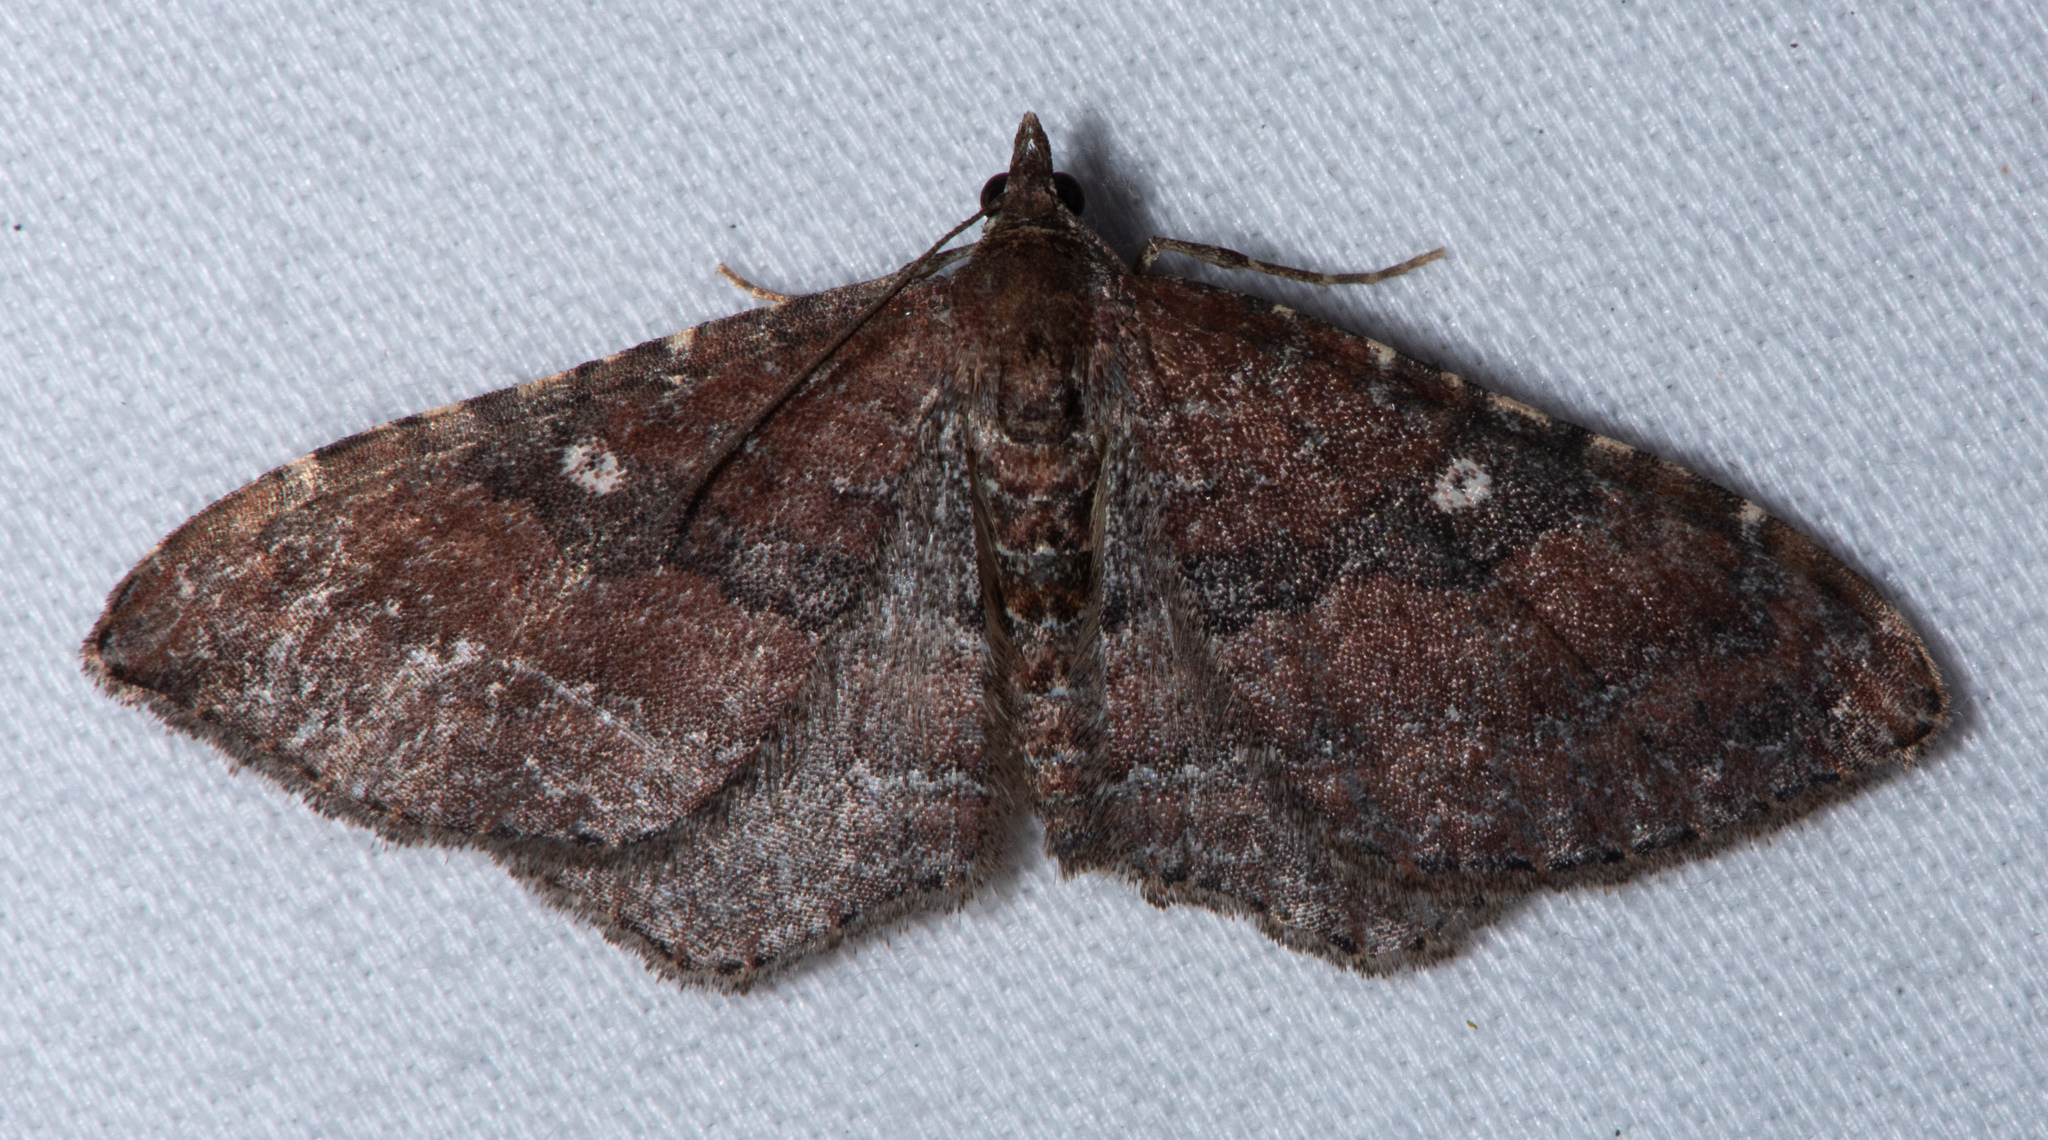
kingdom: Animalia
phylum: Arthropoda
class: Insecta
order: Lepidoptera
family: Geometridae
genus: Orthonama
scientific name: Orthonama obstipata
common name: The gem
